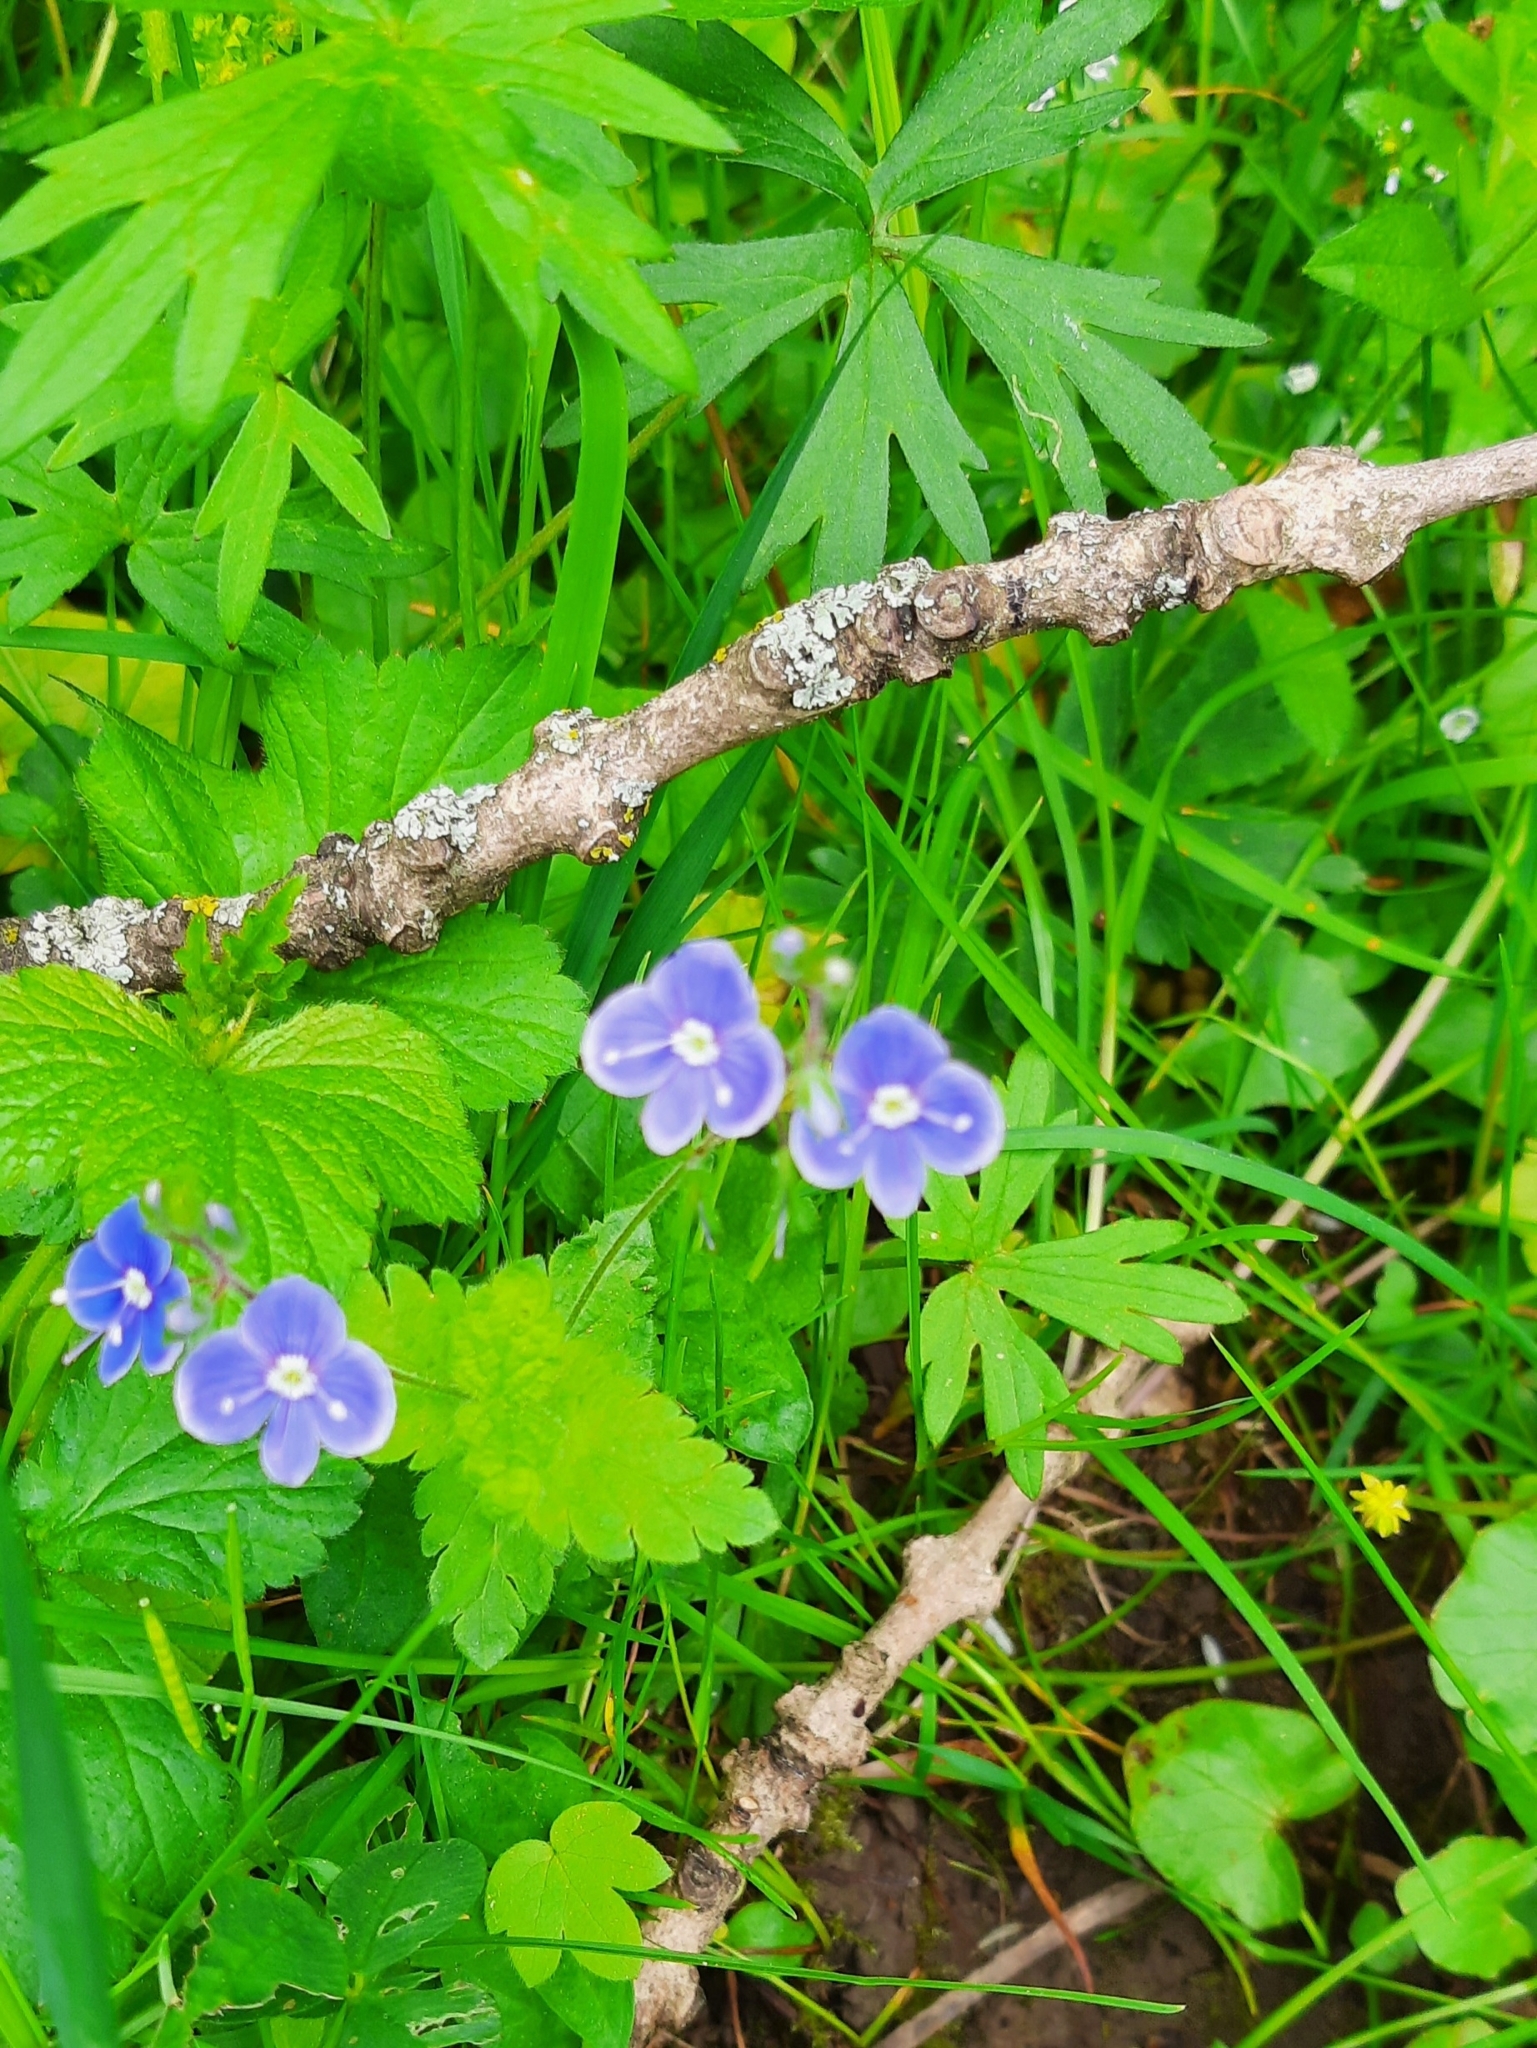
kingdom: Plantae
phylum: Tracheophyta
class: Magnoliopsida
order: Lamiales
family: Plantaginaceae
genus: Veronica
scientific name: Veronica chamaedrys
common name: Germander speedwell
